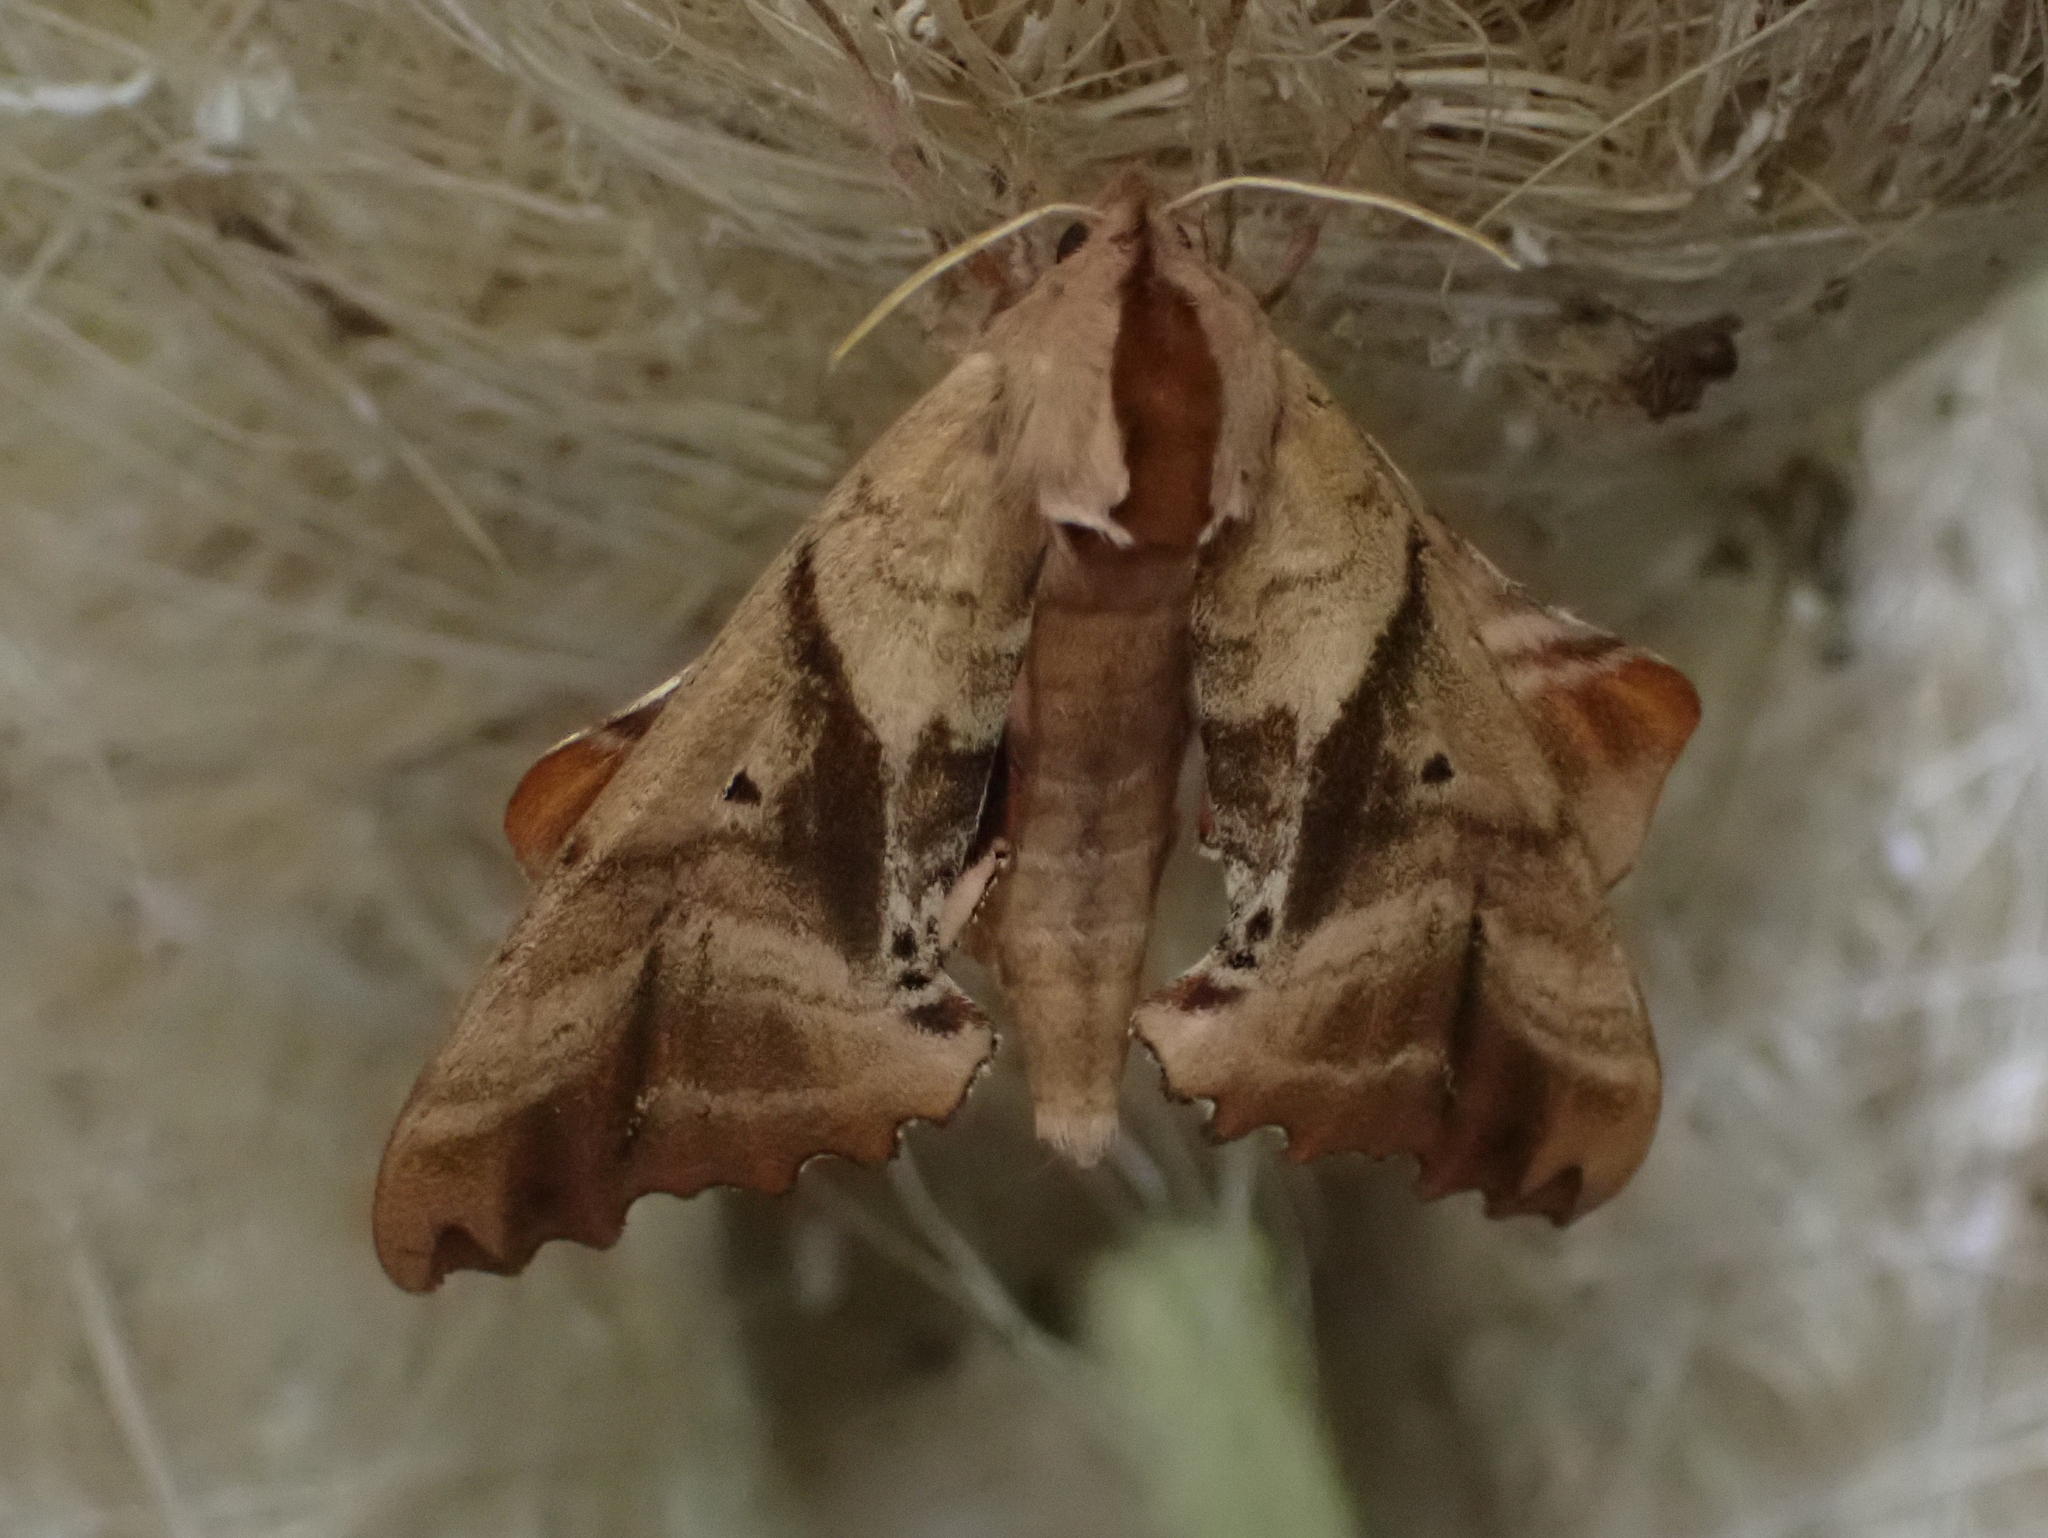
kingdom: Animalia
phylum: Arthropoda
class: Insecta
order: Lepidoptera
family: Sphingidae
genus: Paonias
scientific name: Paonias excaecata
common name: Blind-eyed sphinx
